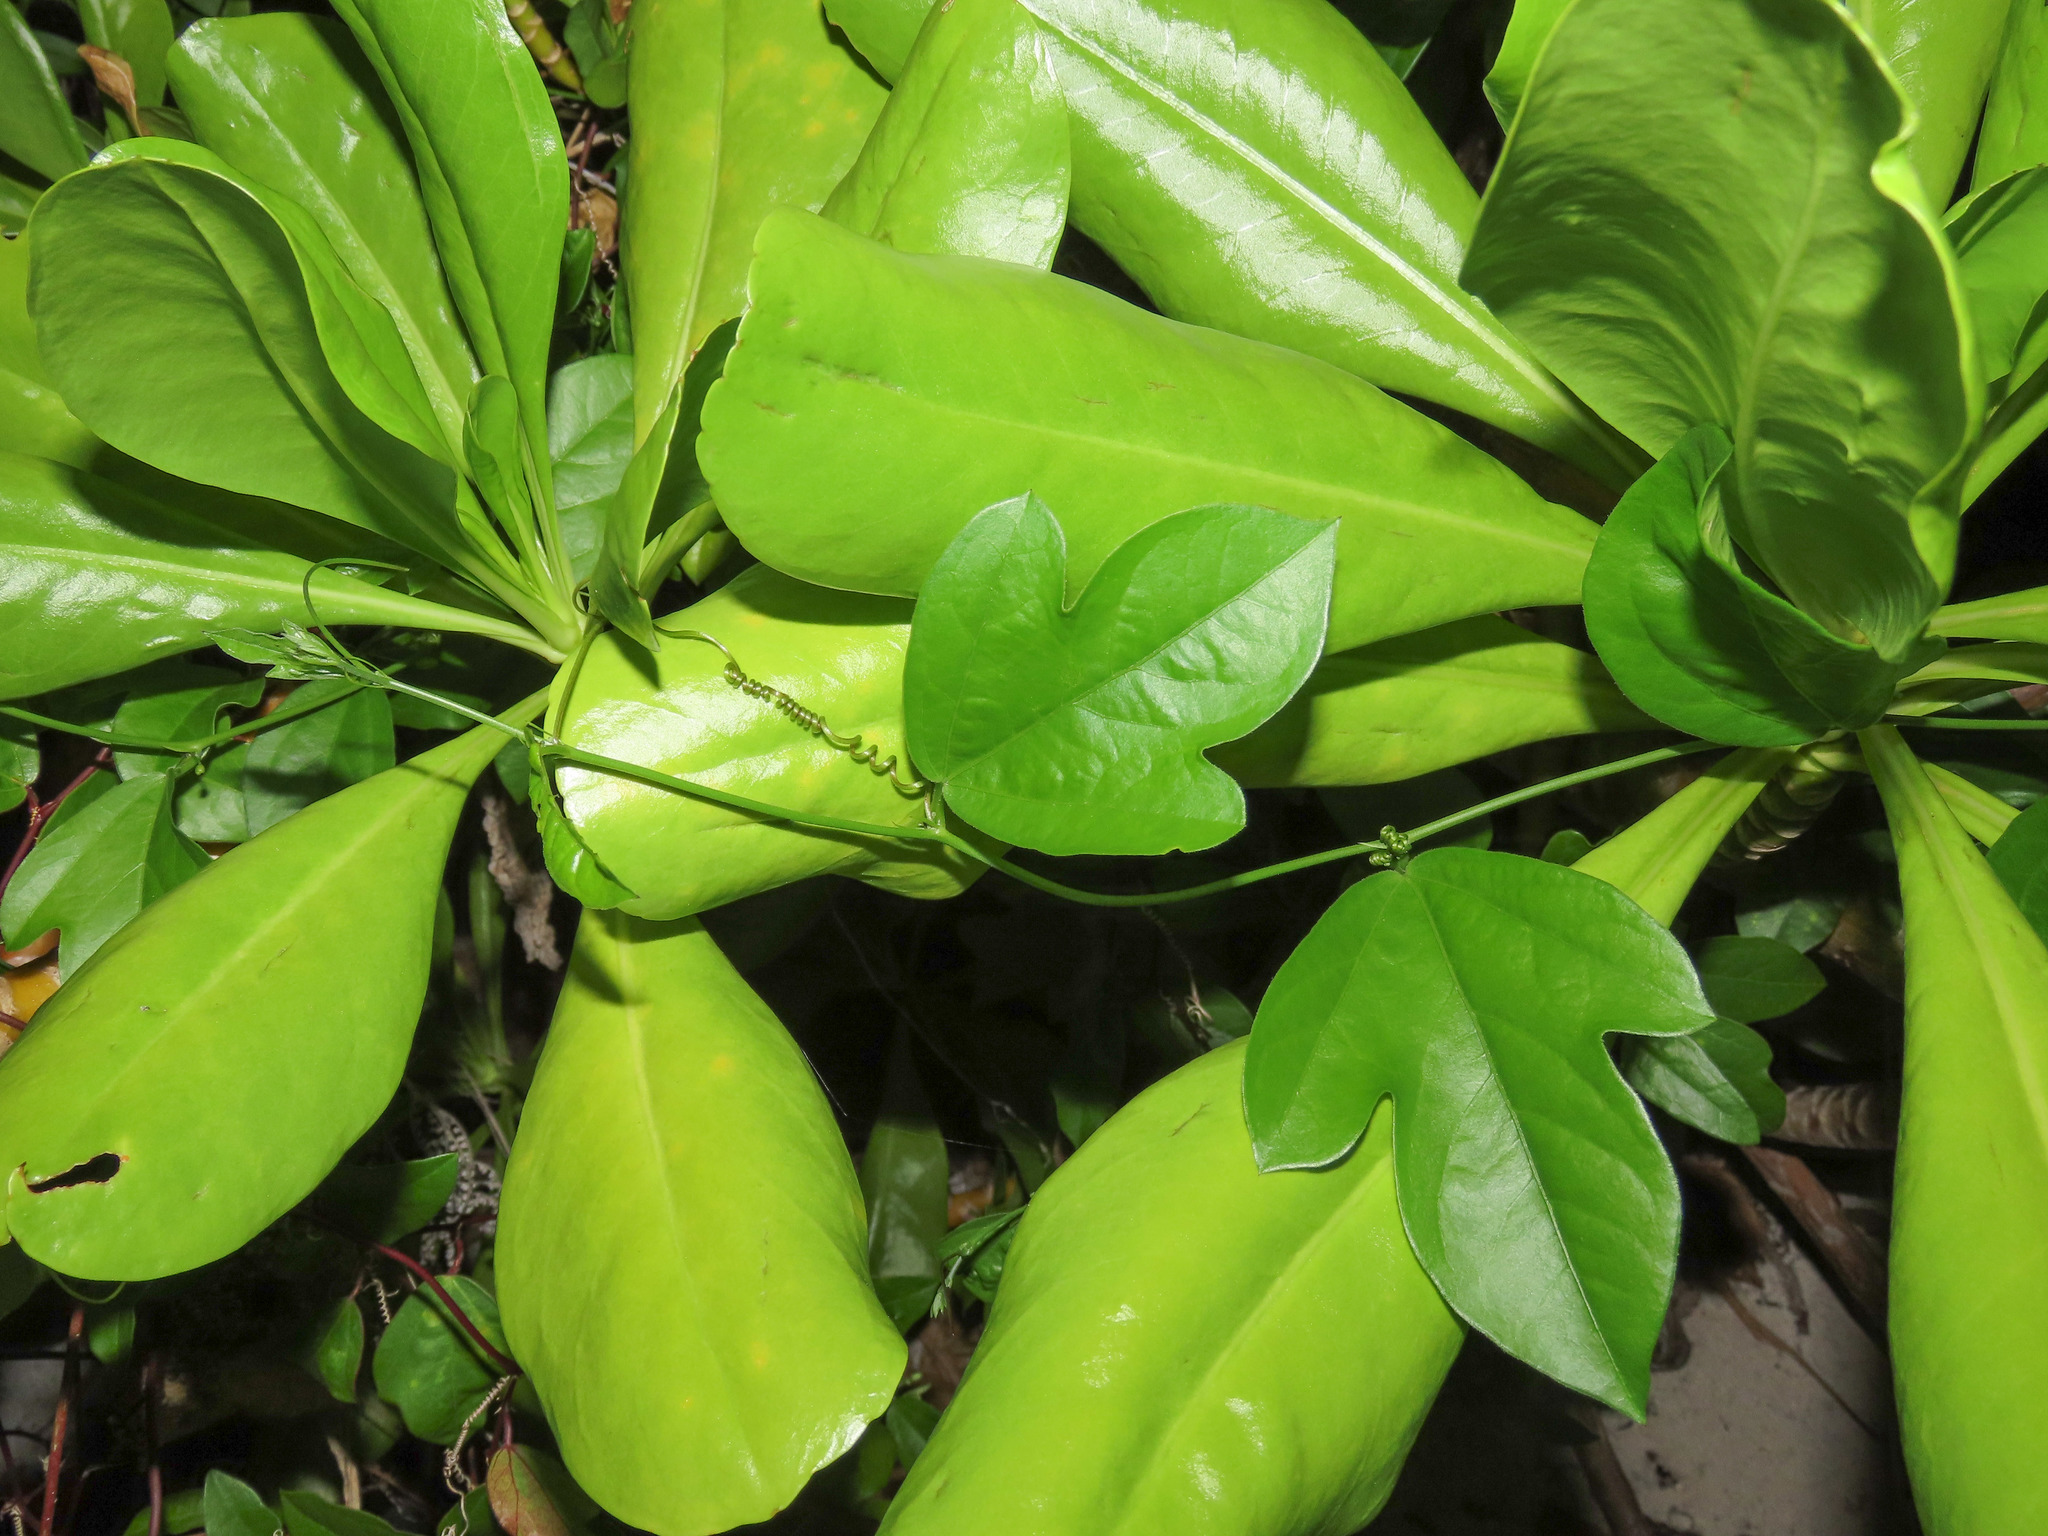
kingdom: Plantae
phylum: Tracheophyta
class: Magnoliopsida
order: Malpighiales
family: Passifloraceae
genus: Passiflora
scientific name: Passiflora pallida
